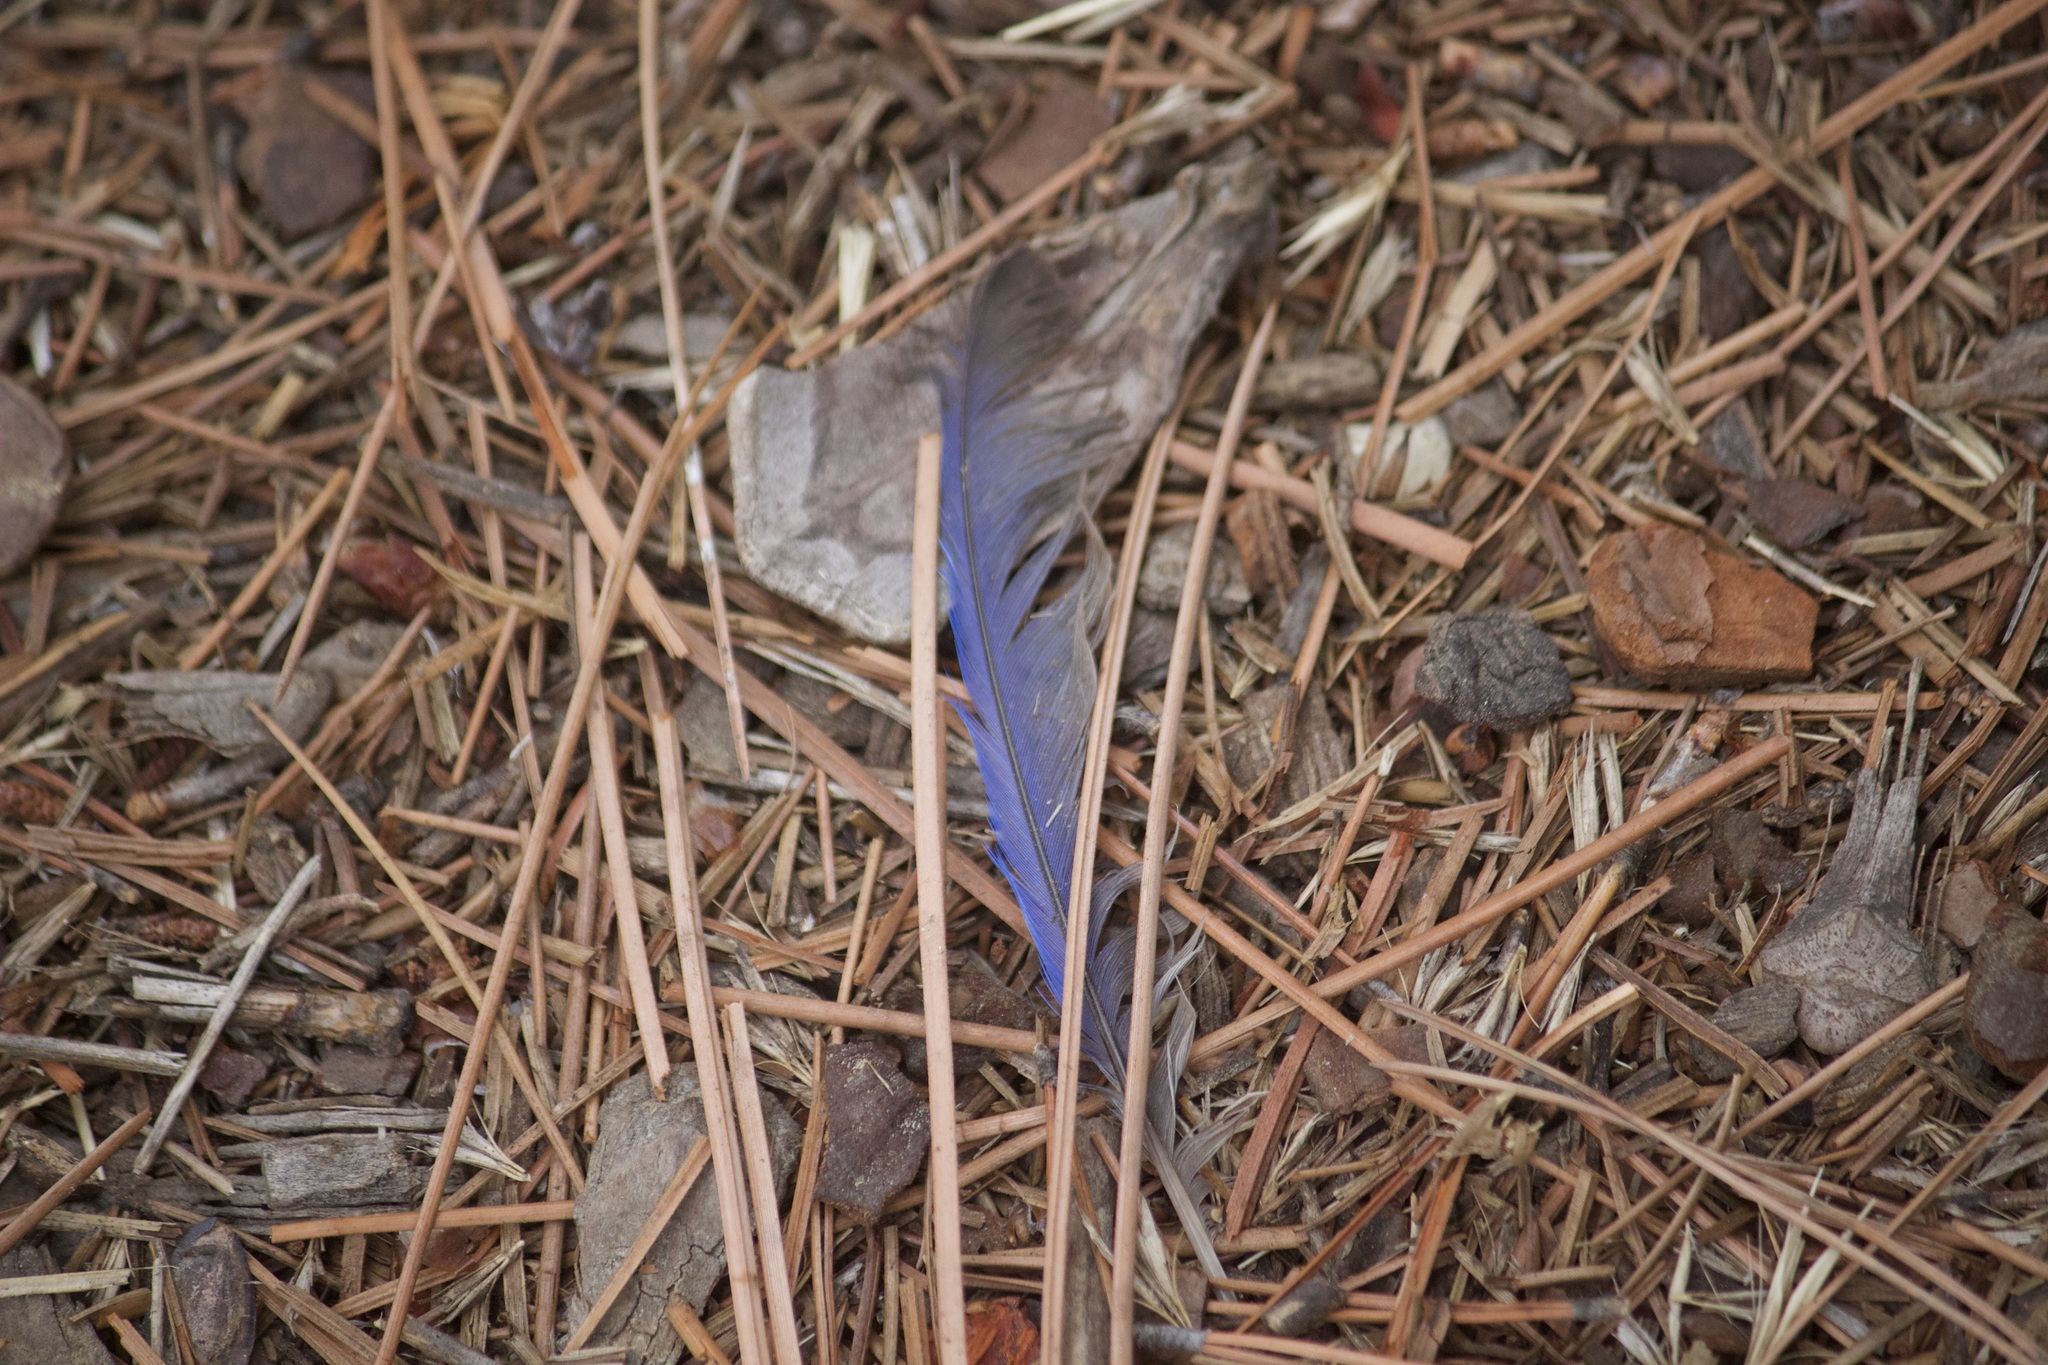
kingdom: Animalia
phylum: Chordata
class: Aves
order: Passeriformes
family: Turdidae
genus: Sialia
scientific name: Sialia mexicana
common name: Western bluebird
